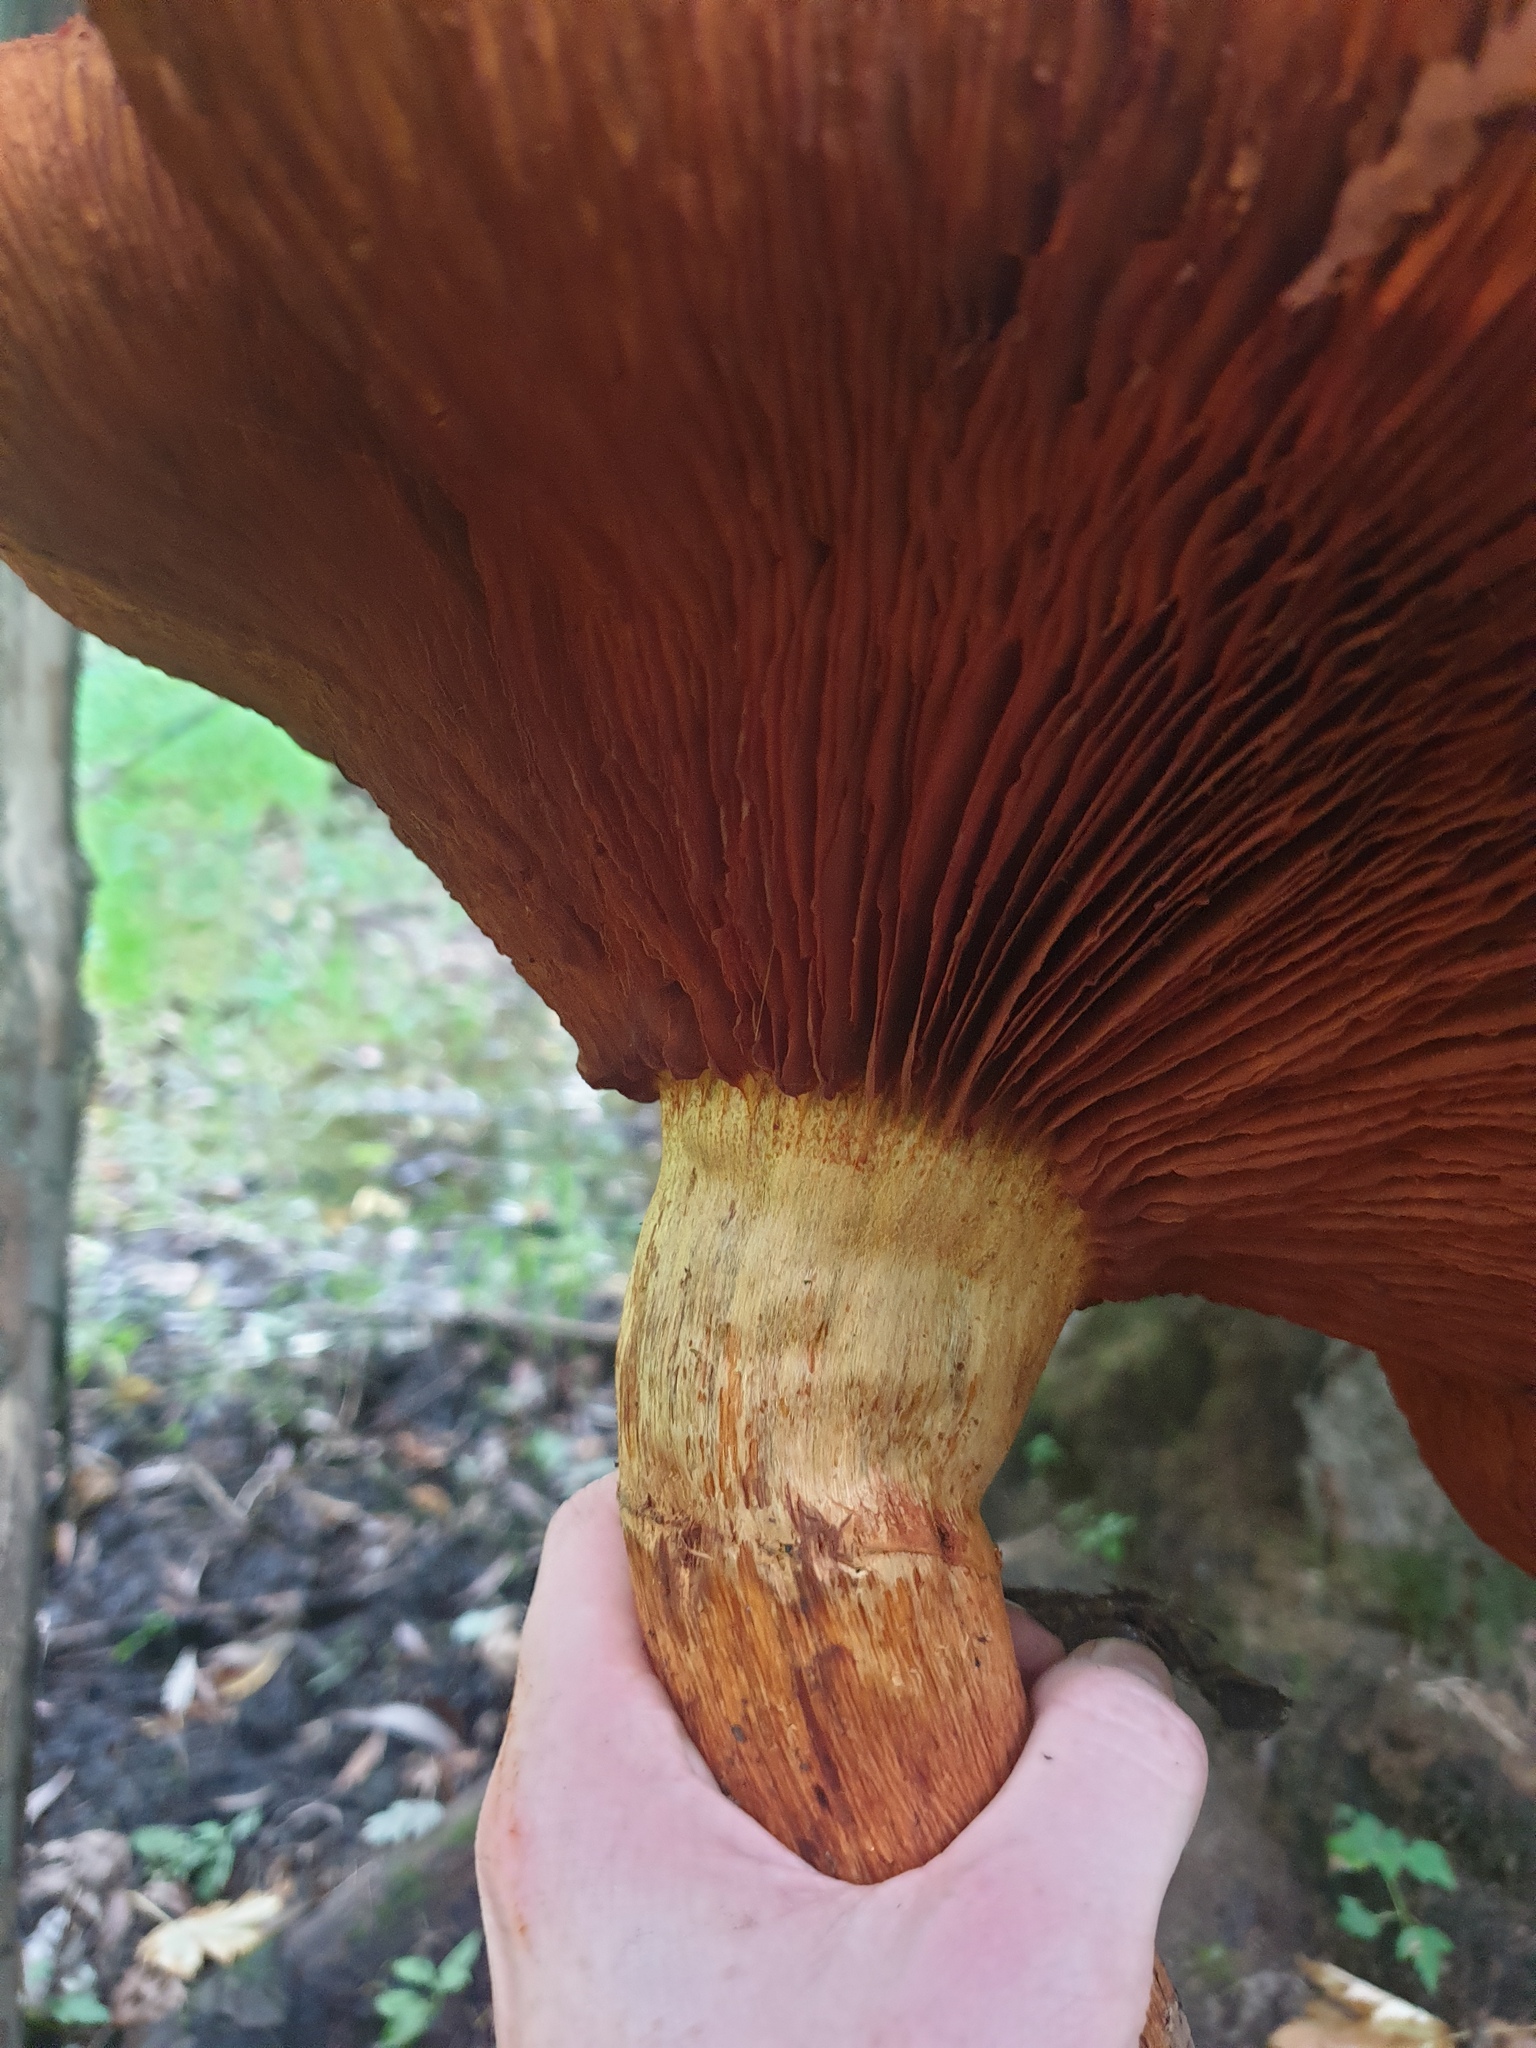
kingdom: Fungi
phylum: Basidiomycota
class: Agaricomycetes
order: Agaricales
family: Hymenogastraceae
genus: Gymnopilus
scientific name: Gymnopilus subspectabilis
